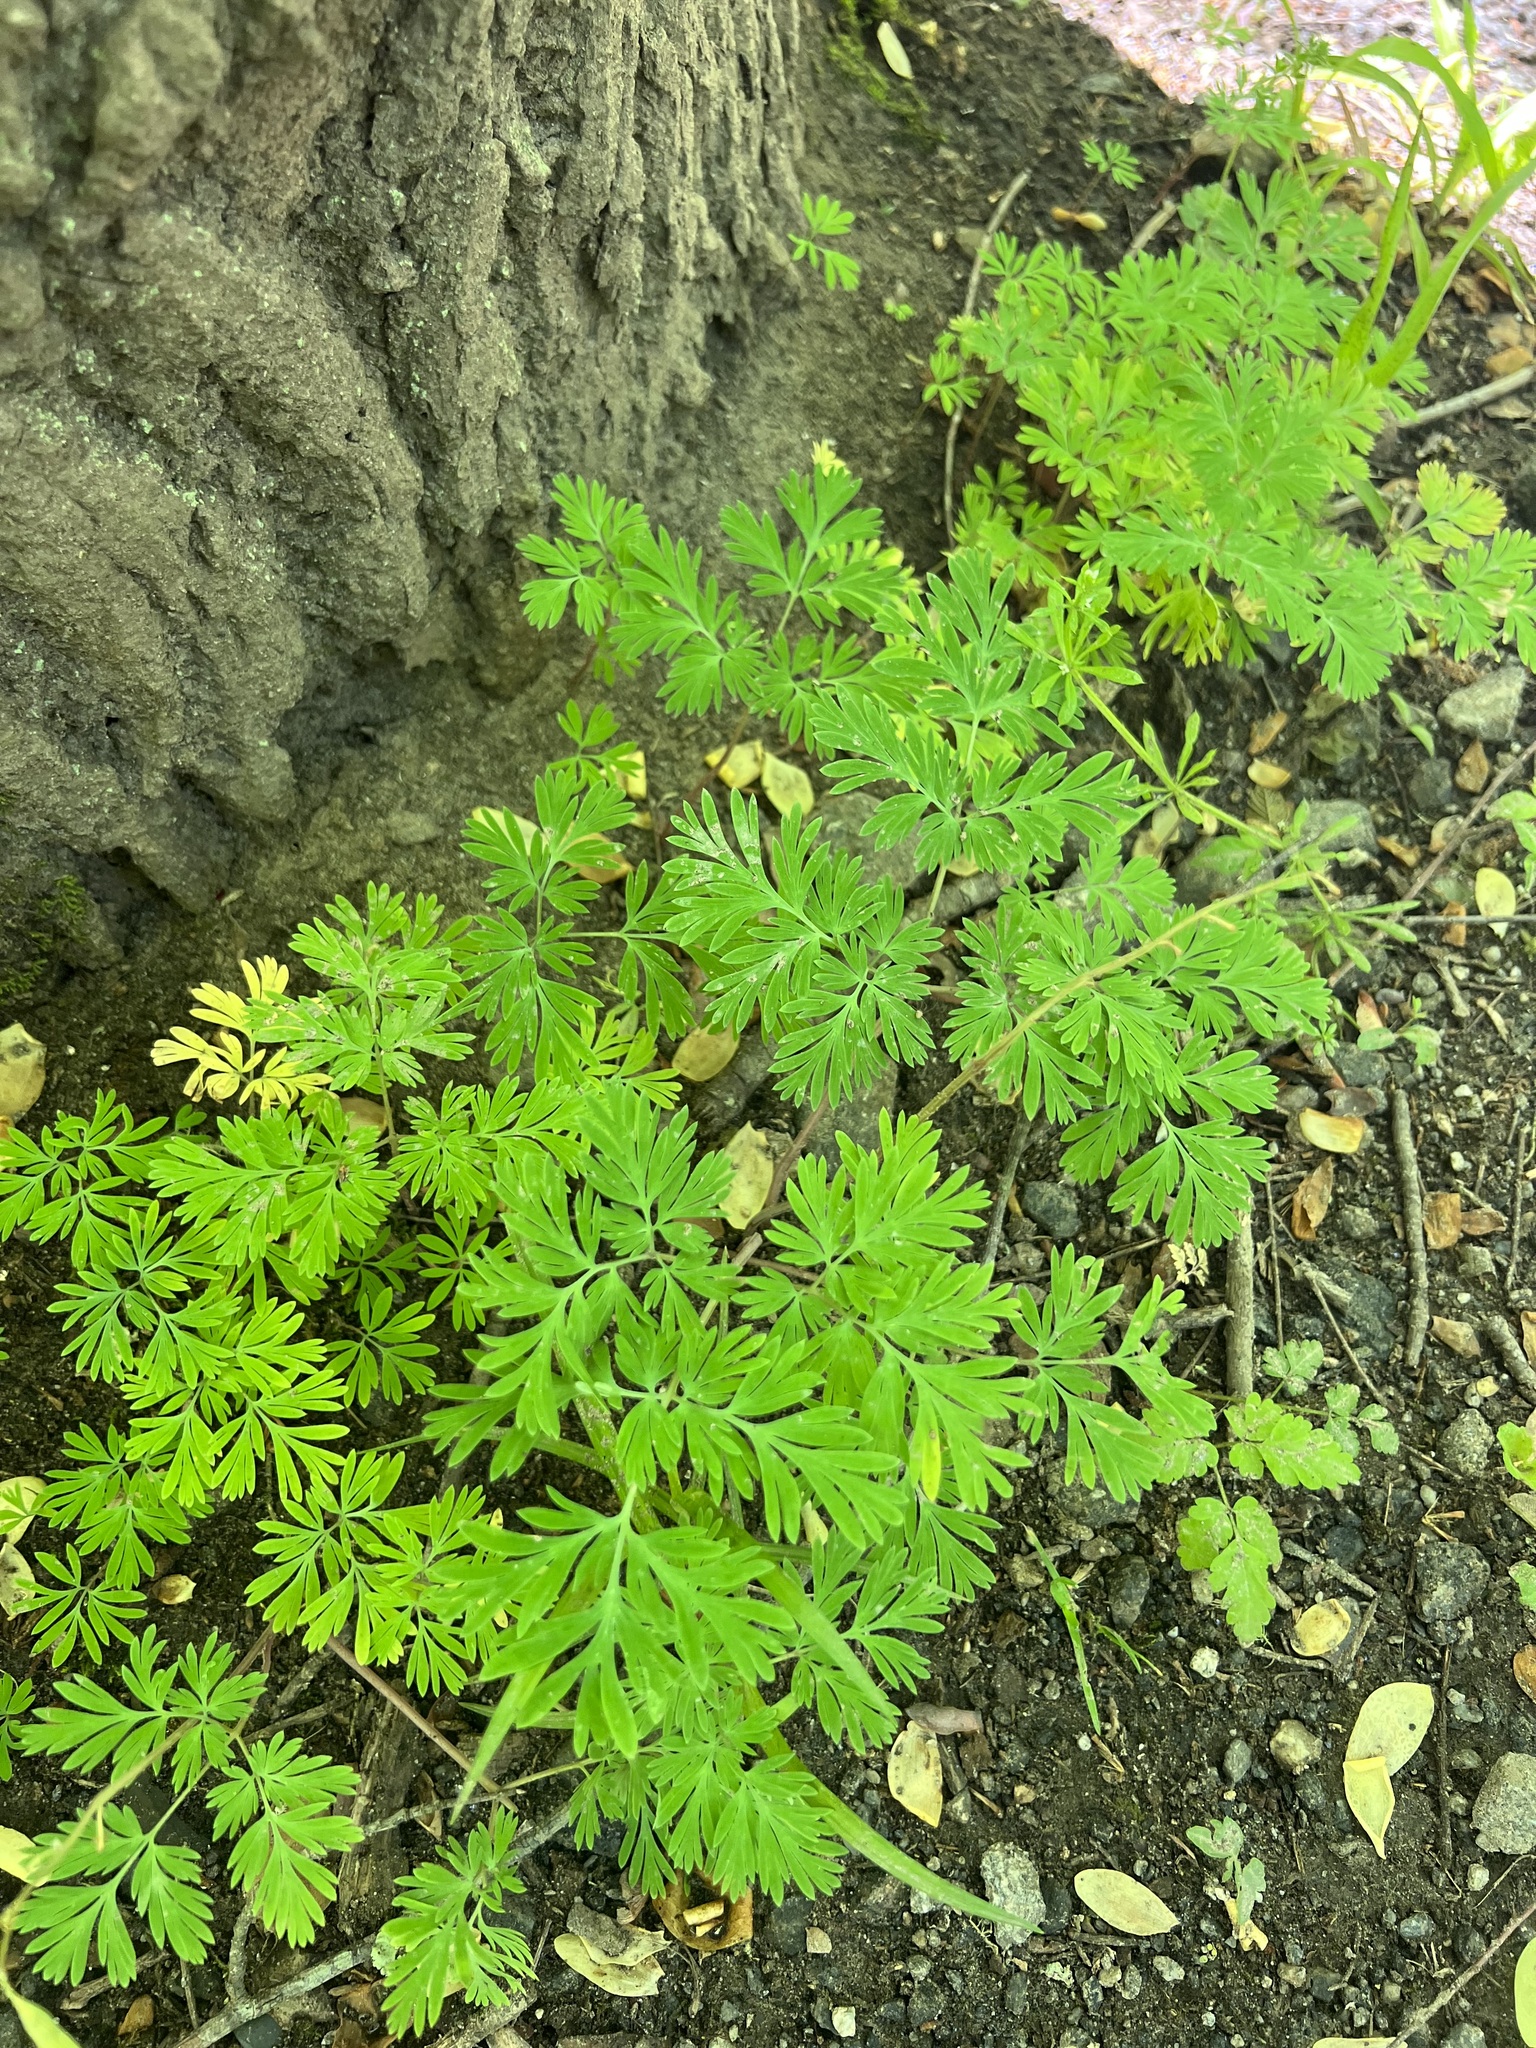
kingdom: Plantae
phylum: Tracheophyta
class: Magnoliopsida
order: Ranunculales
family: Papaveraceae
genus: Dicentra
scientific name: Dicentra cucullaria
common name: Dutchman's breeches
